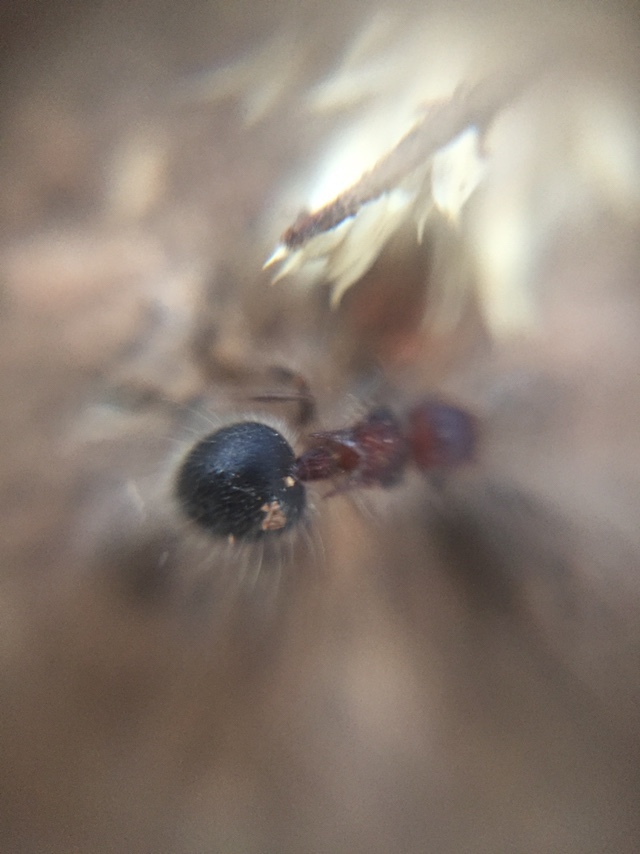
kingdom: Animalia
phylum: Arthropoda
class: Insecta
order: Hymenoptera
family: Formicidae
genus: Meranoplus
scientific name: Meranoplus bicolor
